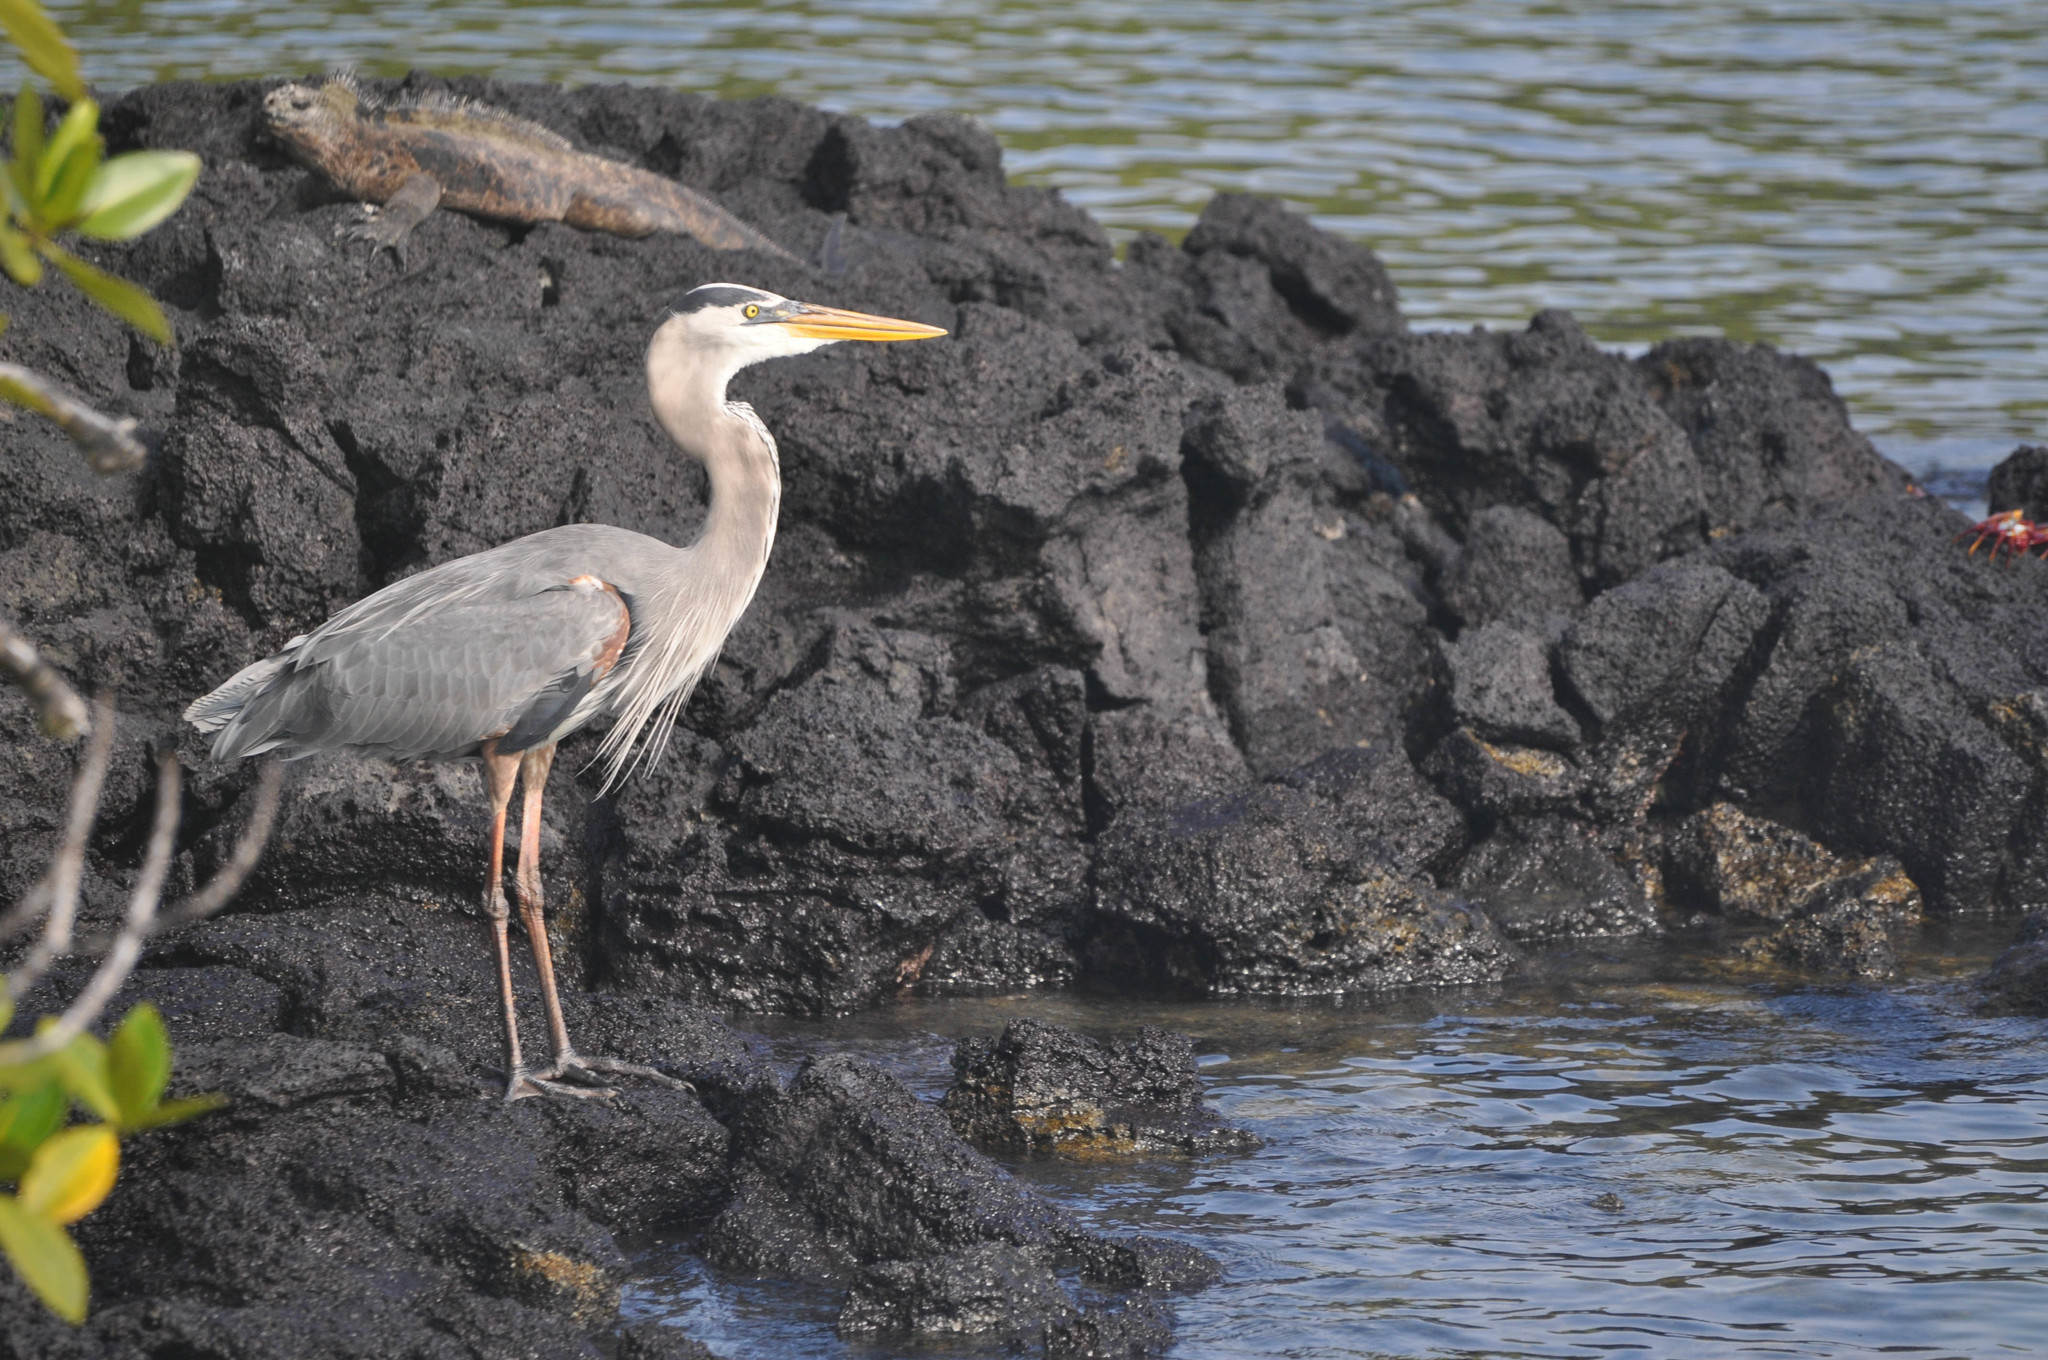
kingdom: Animalia
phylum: Chordata
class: Aves
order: Pelecaniformes
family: Ardeidae
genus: Ardea
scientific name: Ardea herodias
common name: Great blue heron
